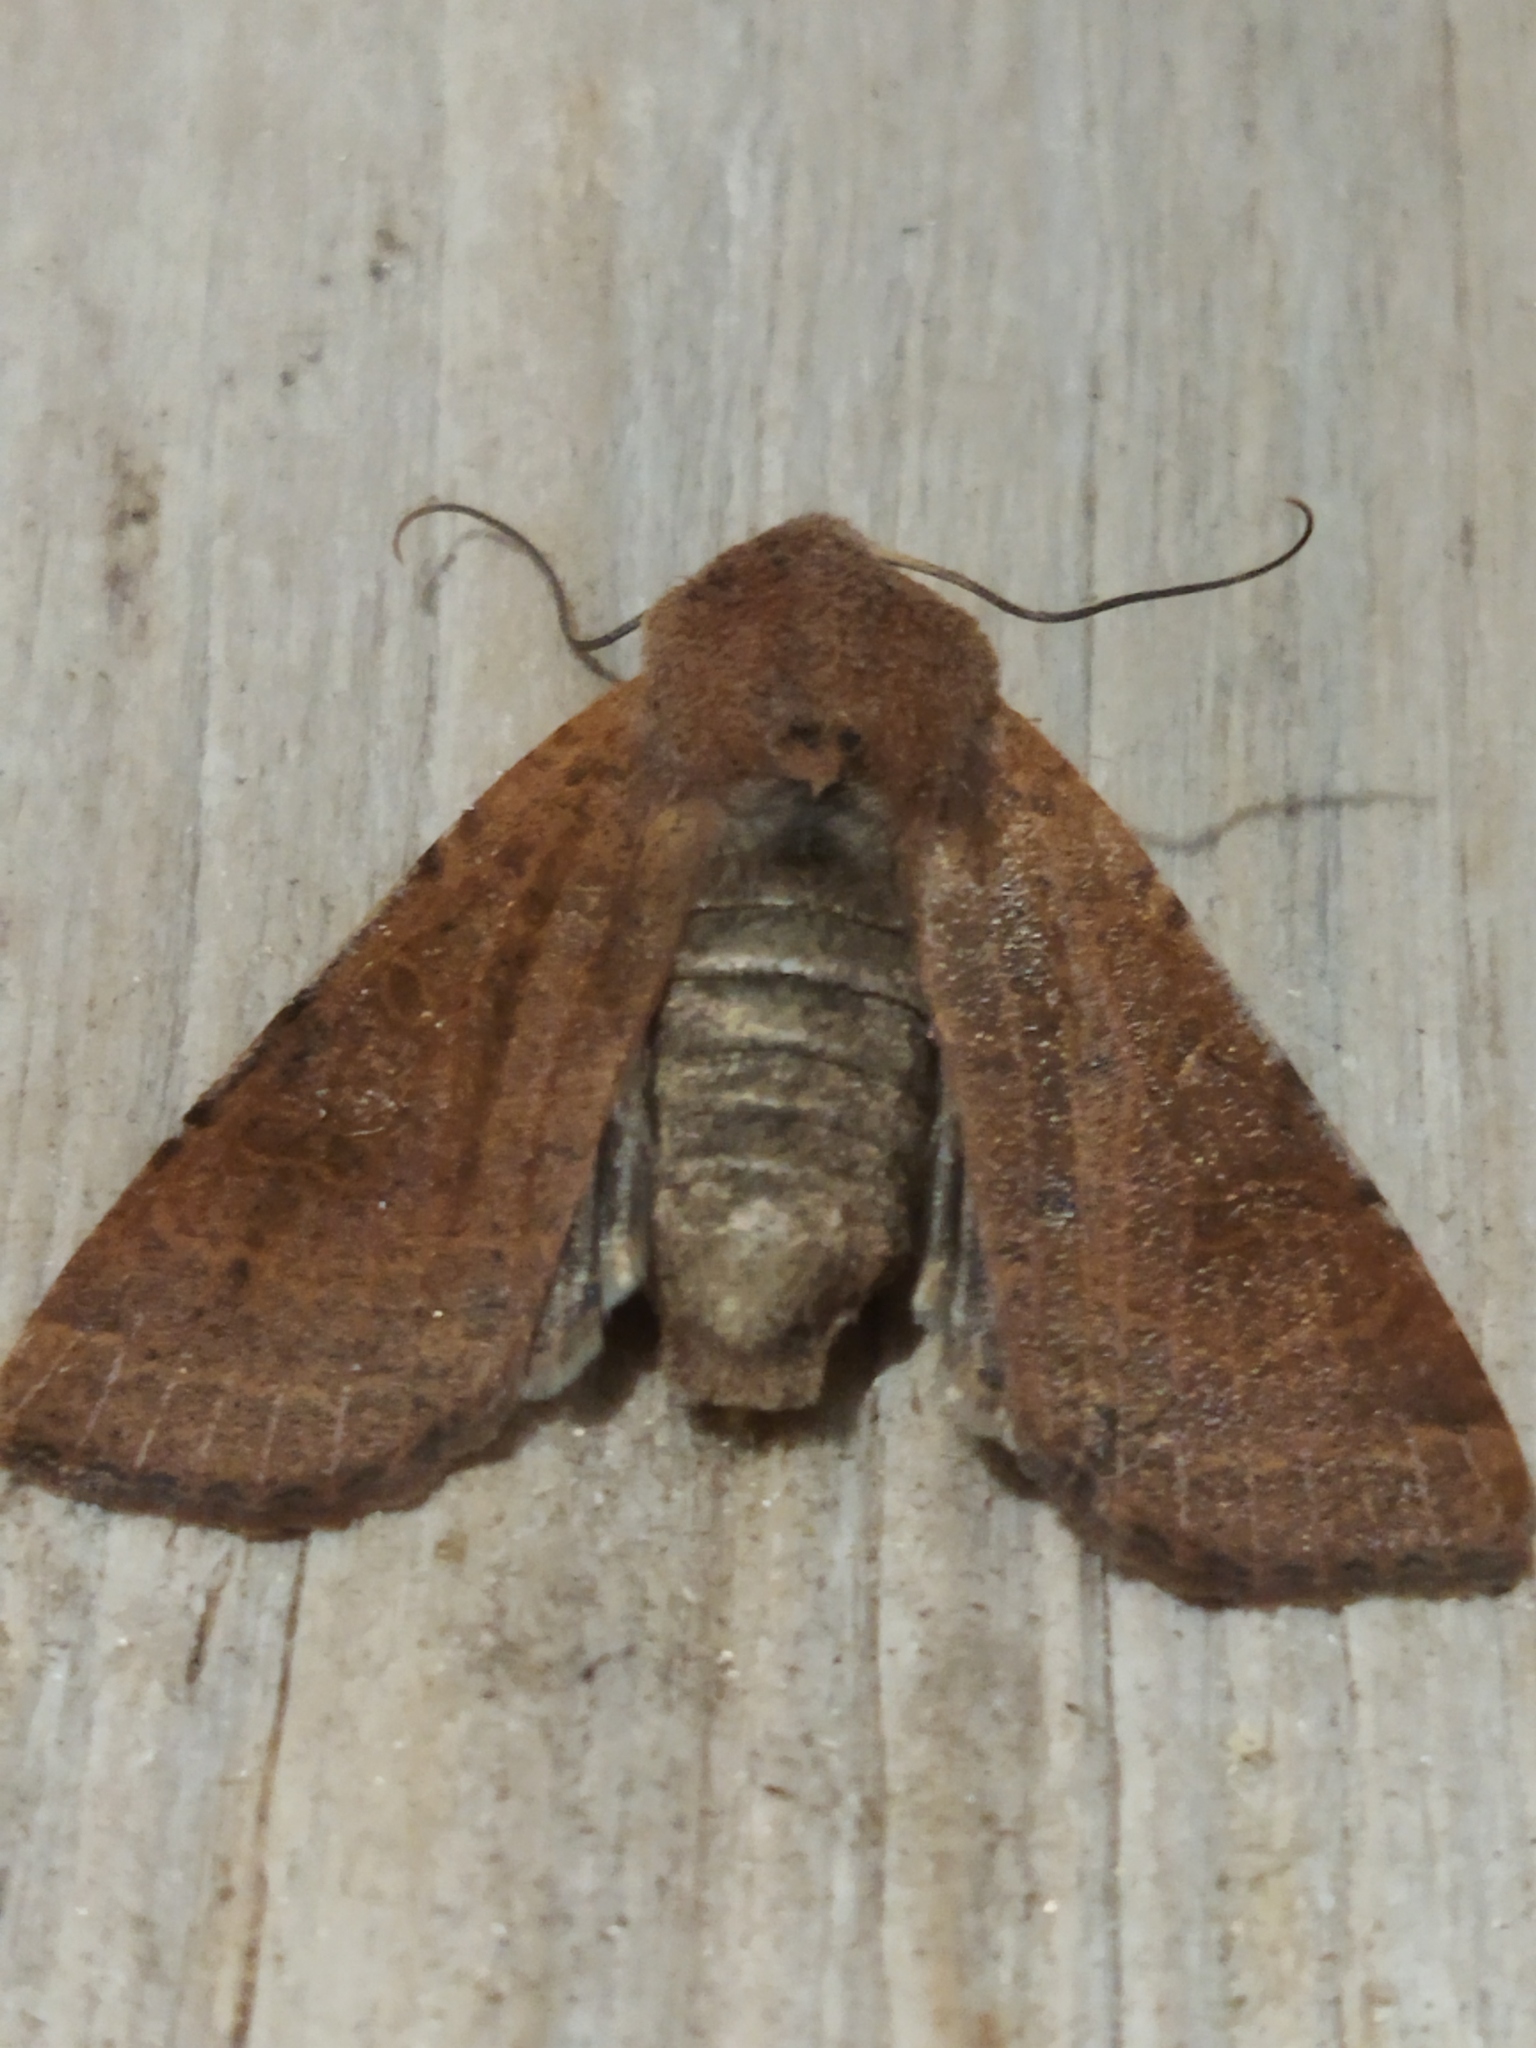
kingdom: Animalia
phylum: Arthropoda
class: Insecta
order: Lepidoptera
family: Noctuidae
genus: Agrochola
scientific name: Agrochola lychnidis
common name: Beaded chestnut
